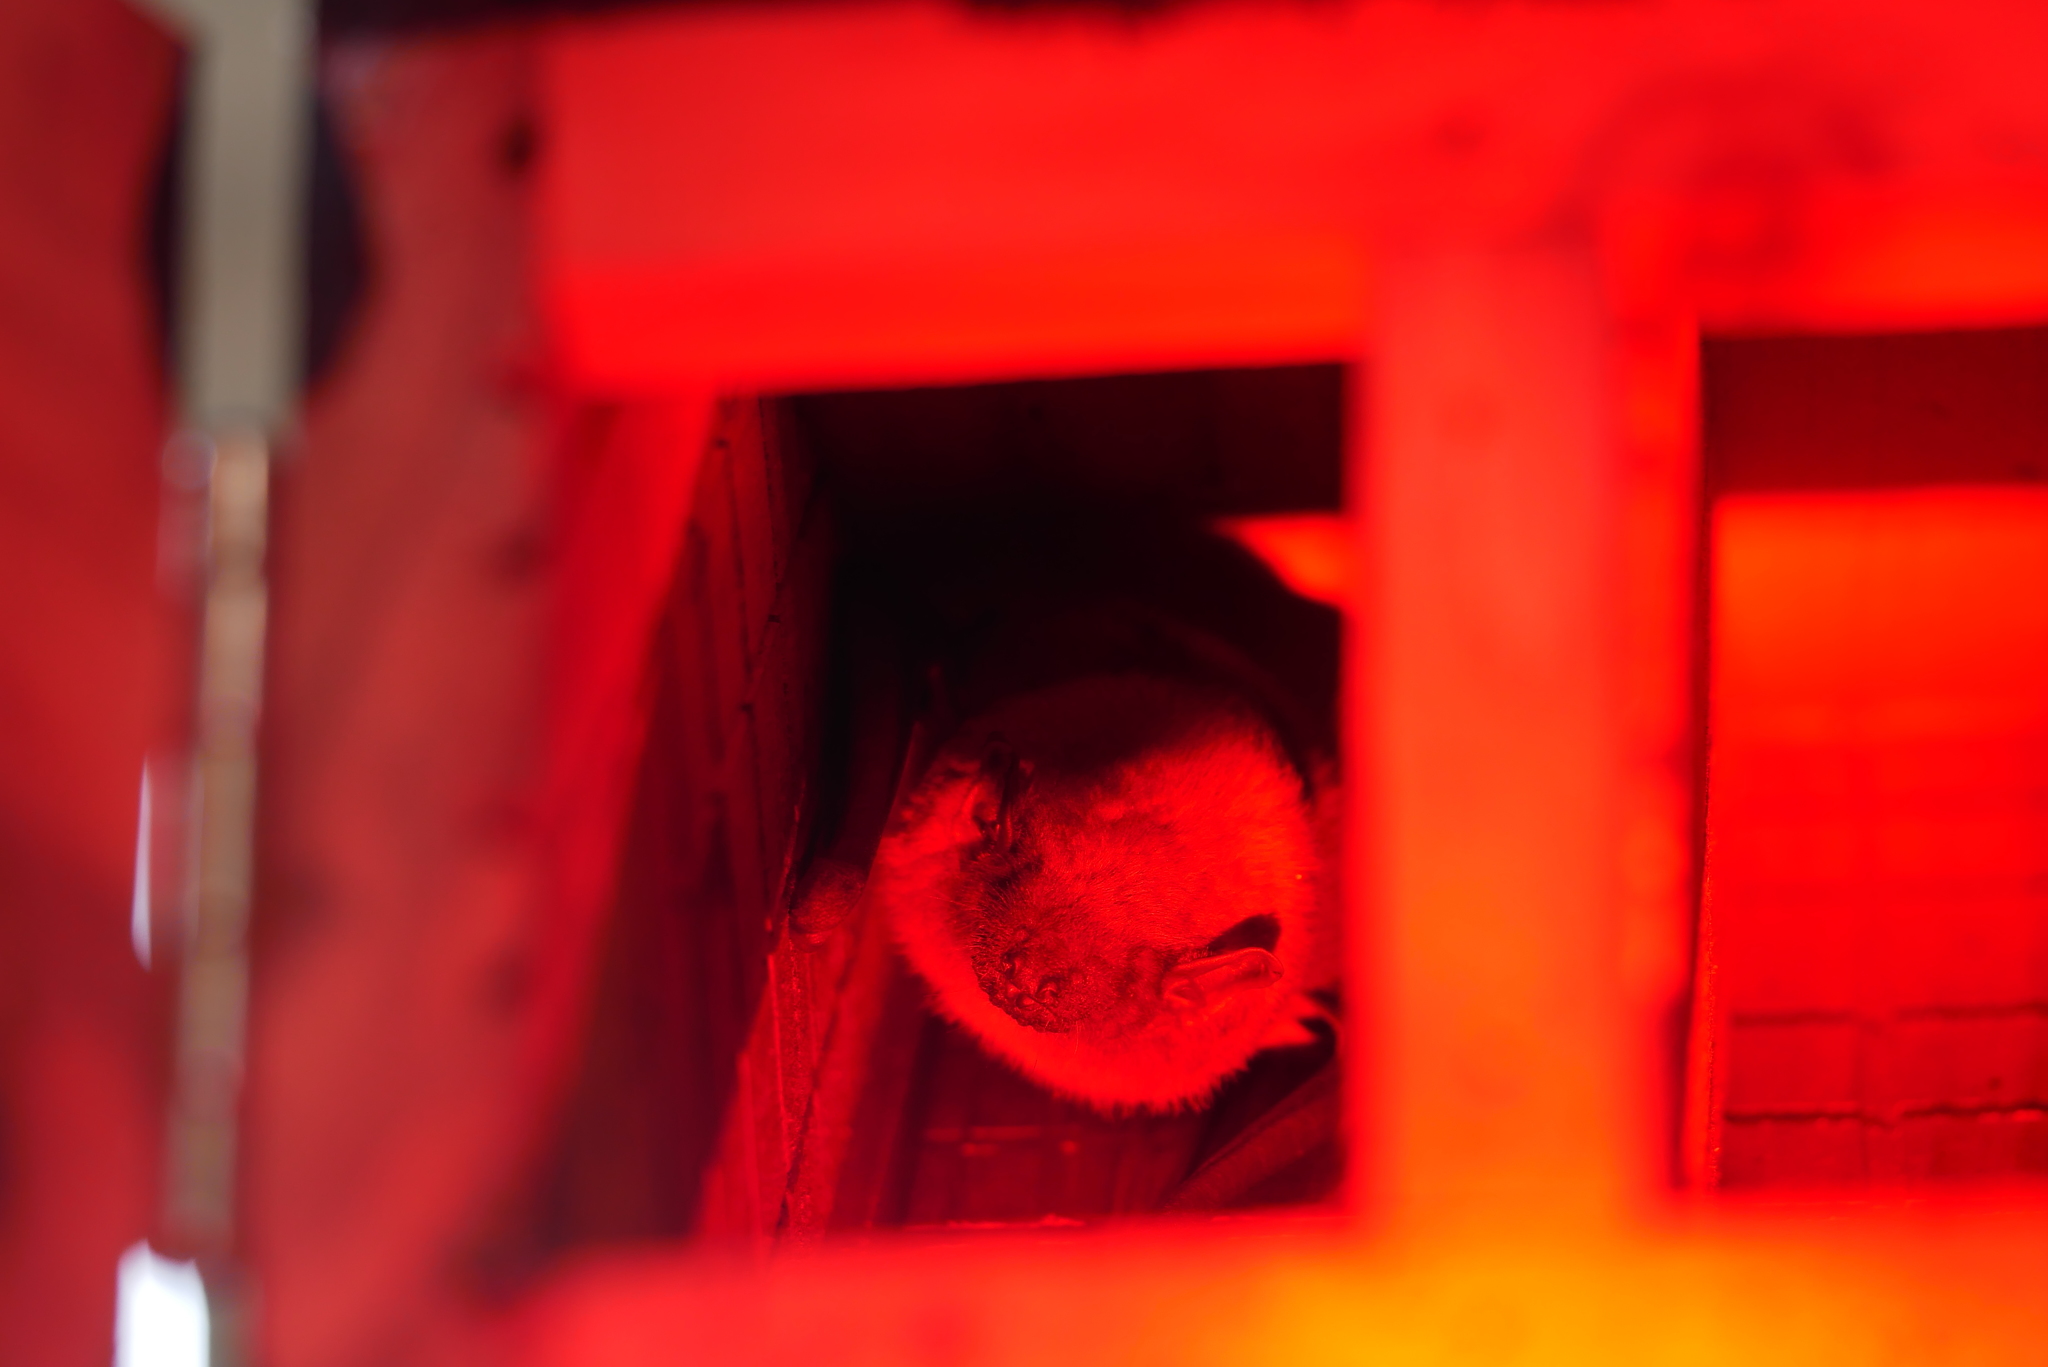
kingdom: Animalia
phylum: Chordata
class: Mammalia
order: Chiroptera
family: Vespertilionidae
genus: Scotophilus
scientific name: Scotophilus kuhlii
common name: Lesser asiatic yellow house bat
